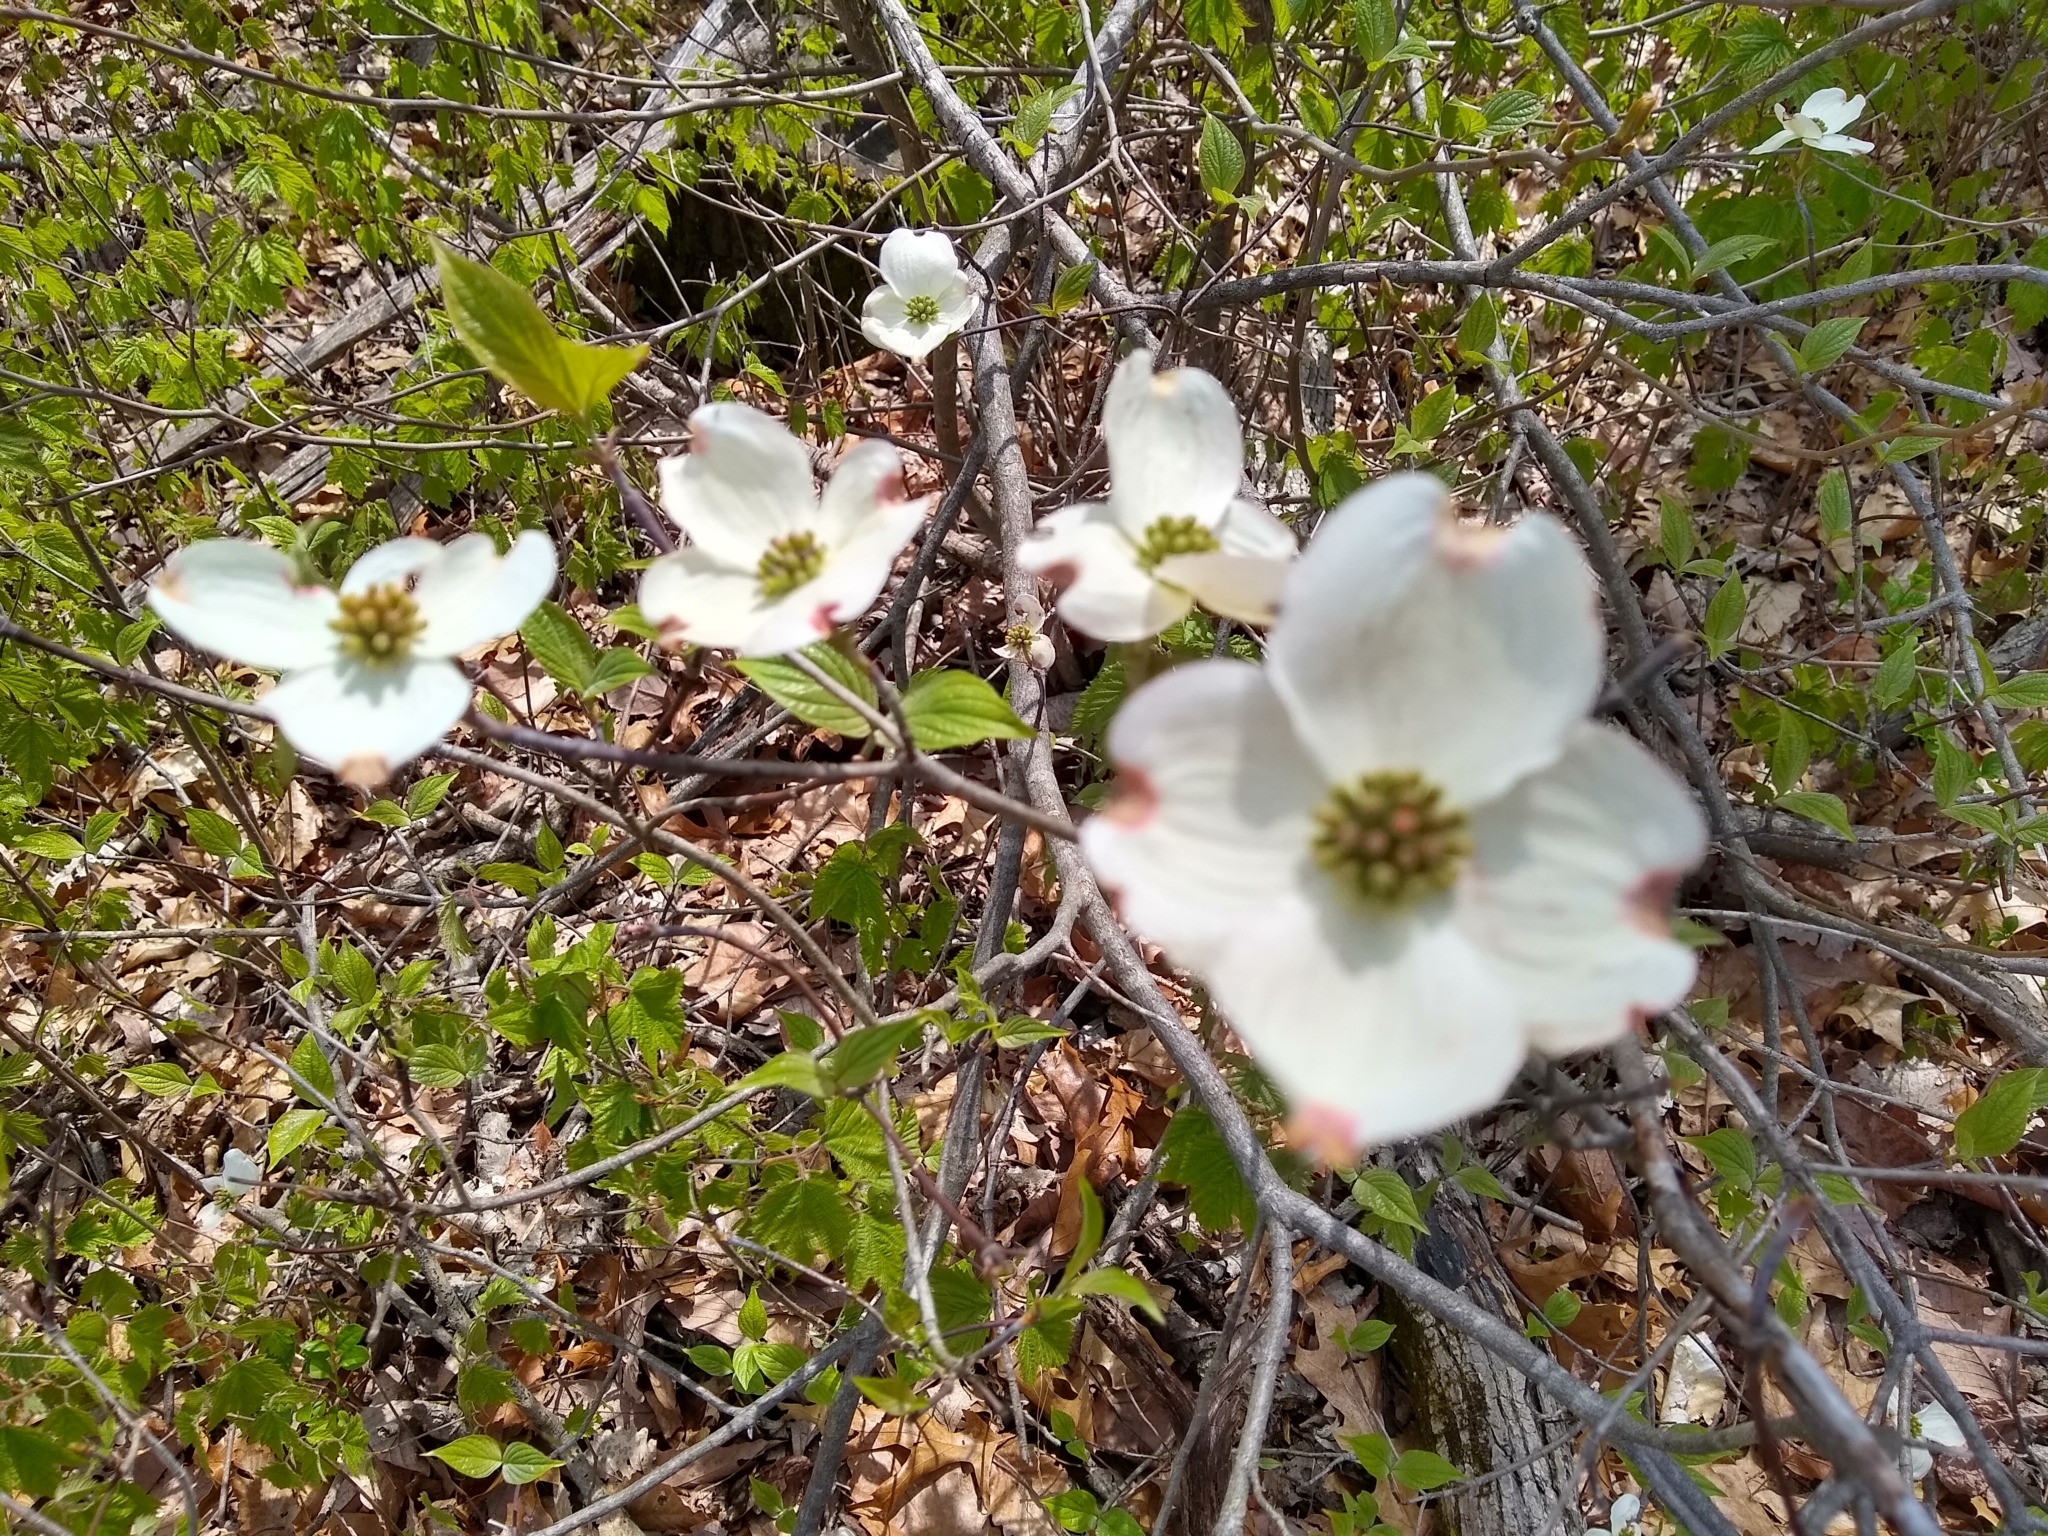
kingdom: Plantae
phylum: Tracheophyta
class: Magnoliopsida
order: Cornales
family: Cornaceae
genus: Cornus
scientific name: Cornus florida
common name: Flowering dogwood
